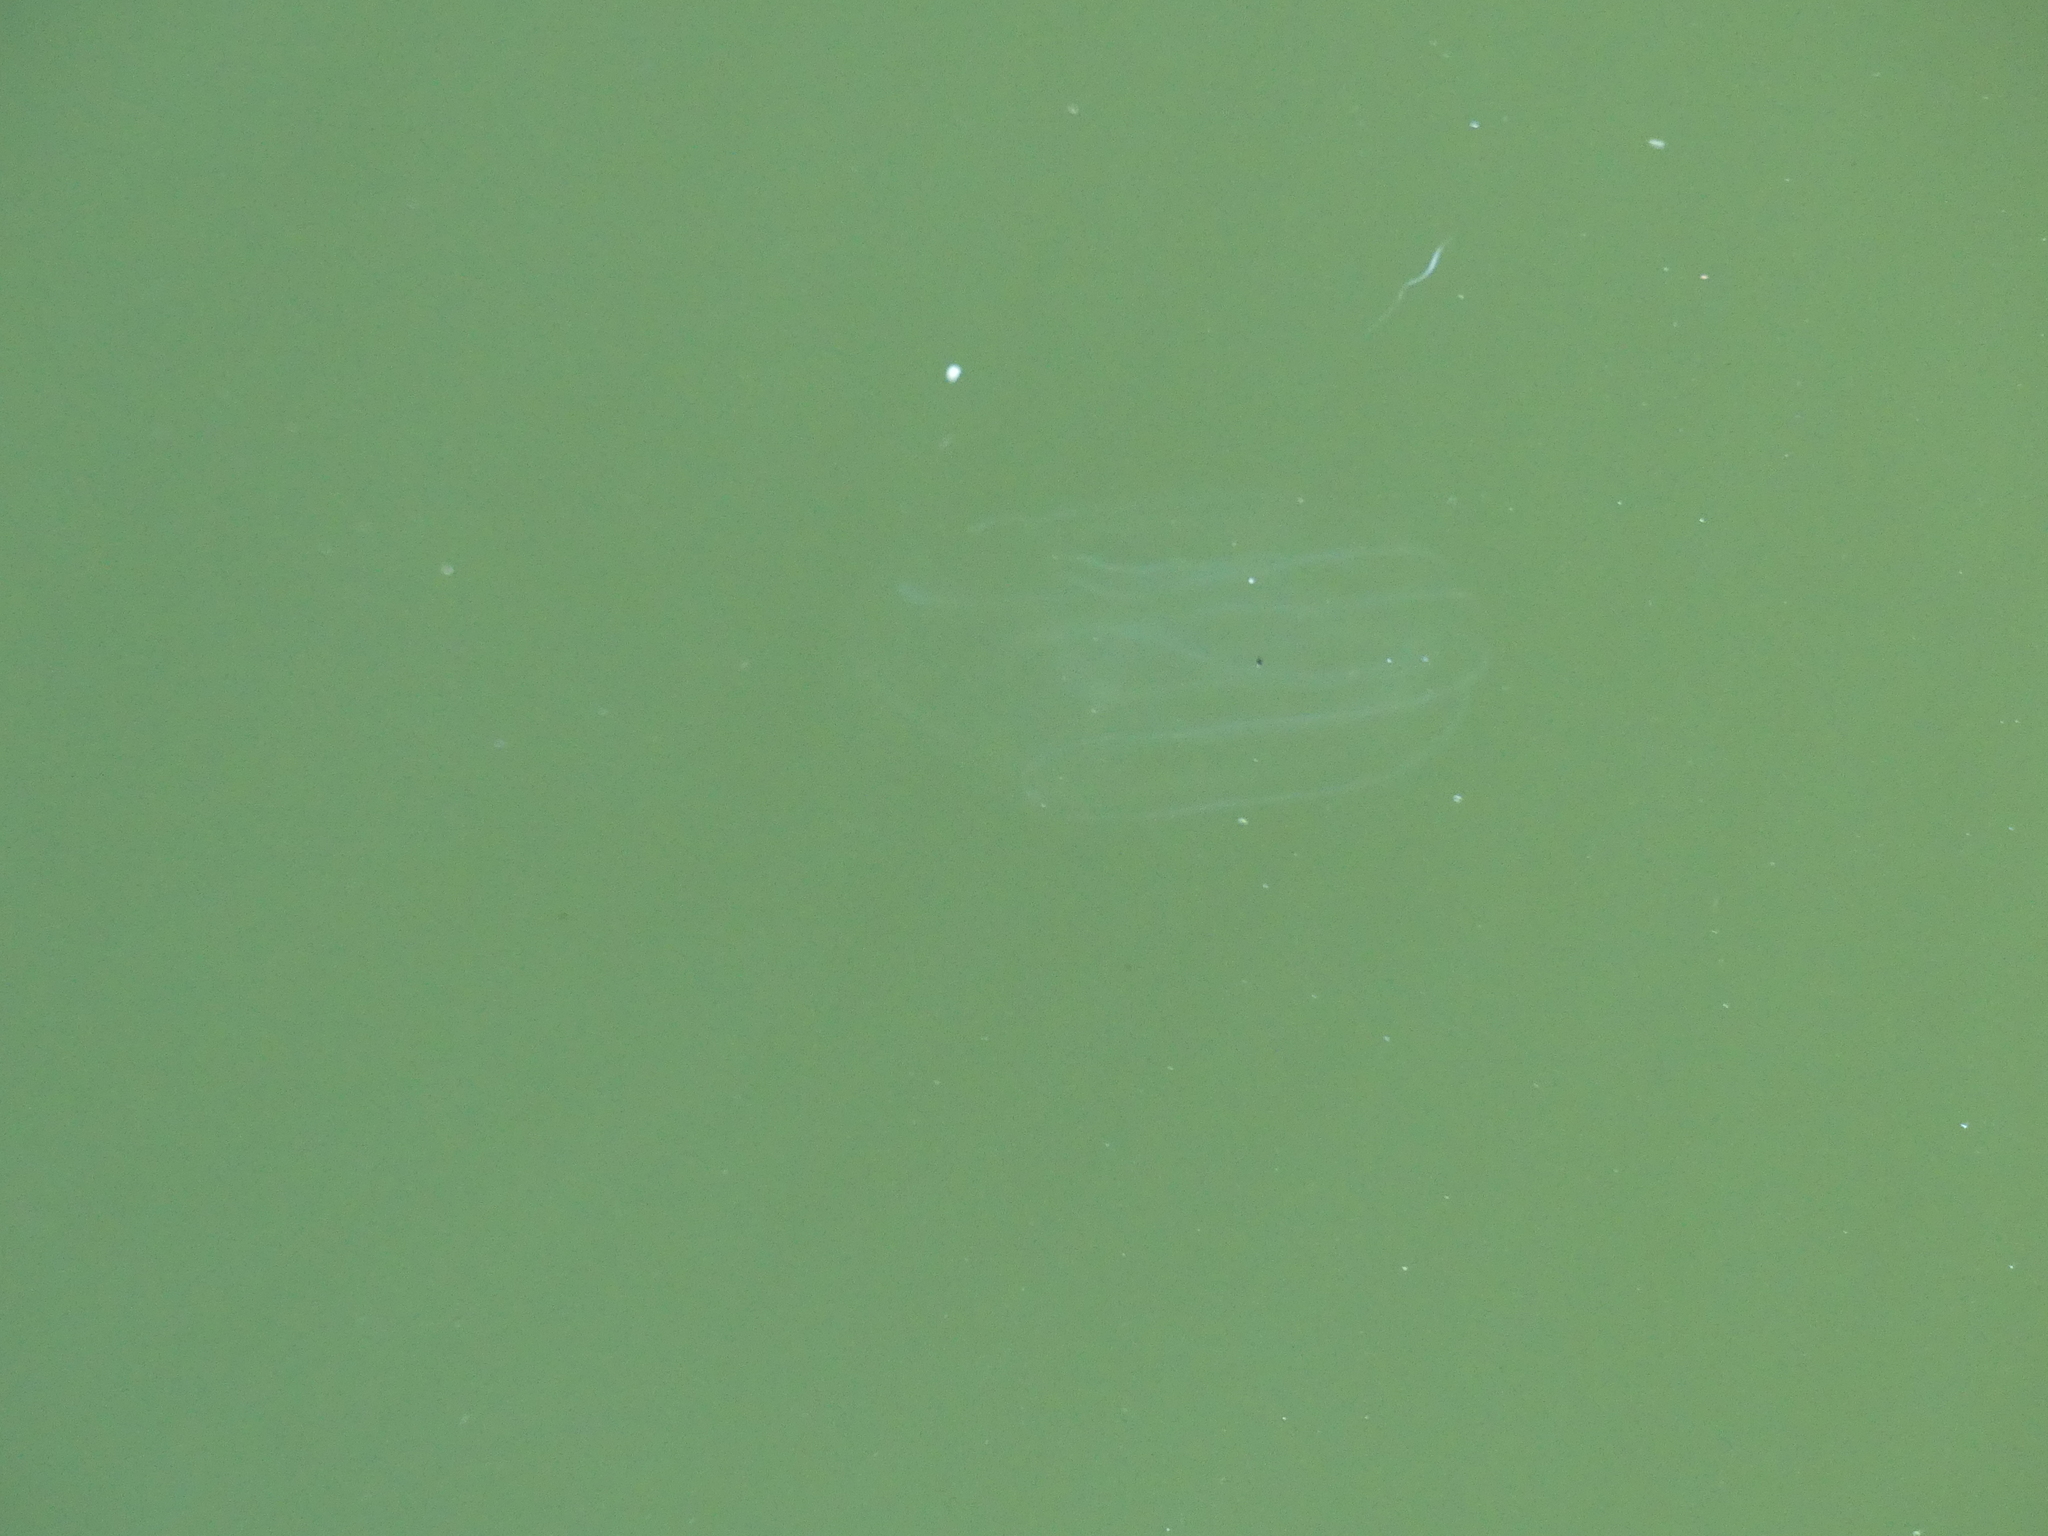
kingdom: Animalia
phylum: Ctenophora
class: Tentaculata
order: Lobata
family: Bolinopsidae
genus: Mnemiopsis
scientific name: Mnemiopsis leidyi
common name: American comb jelly
